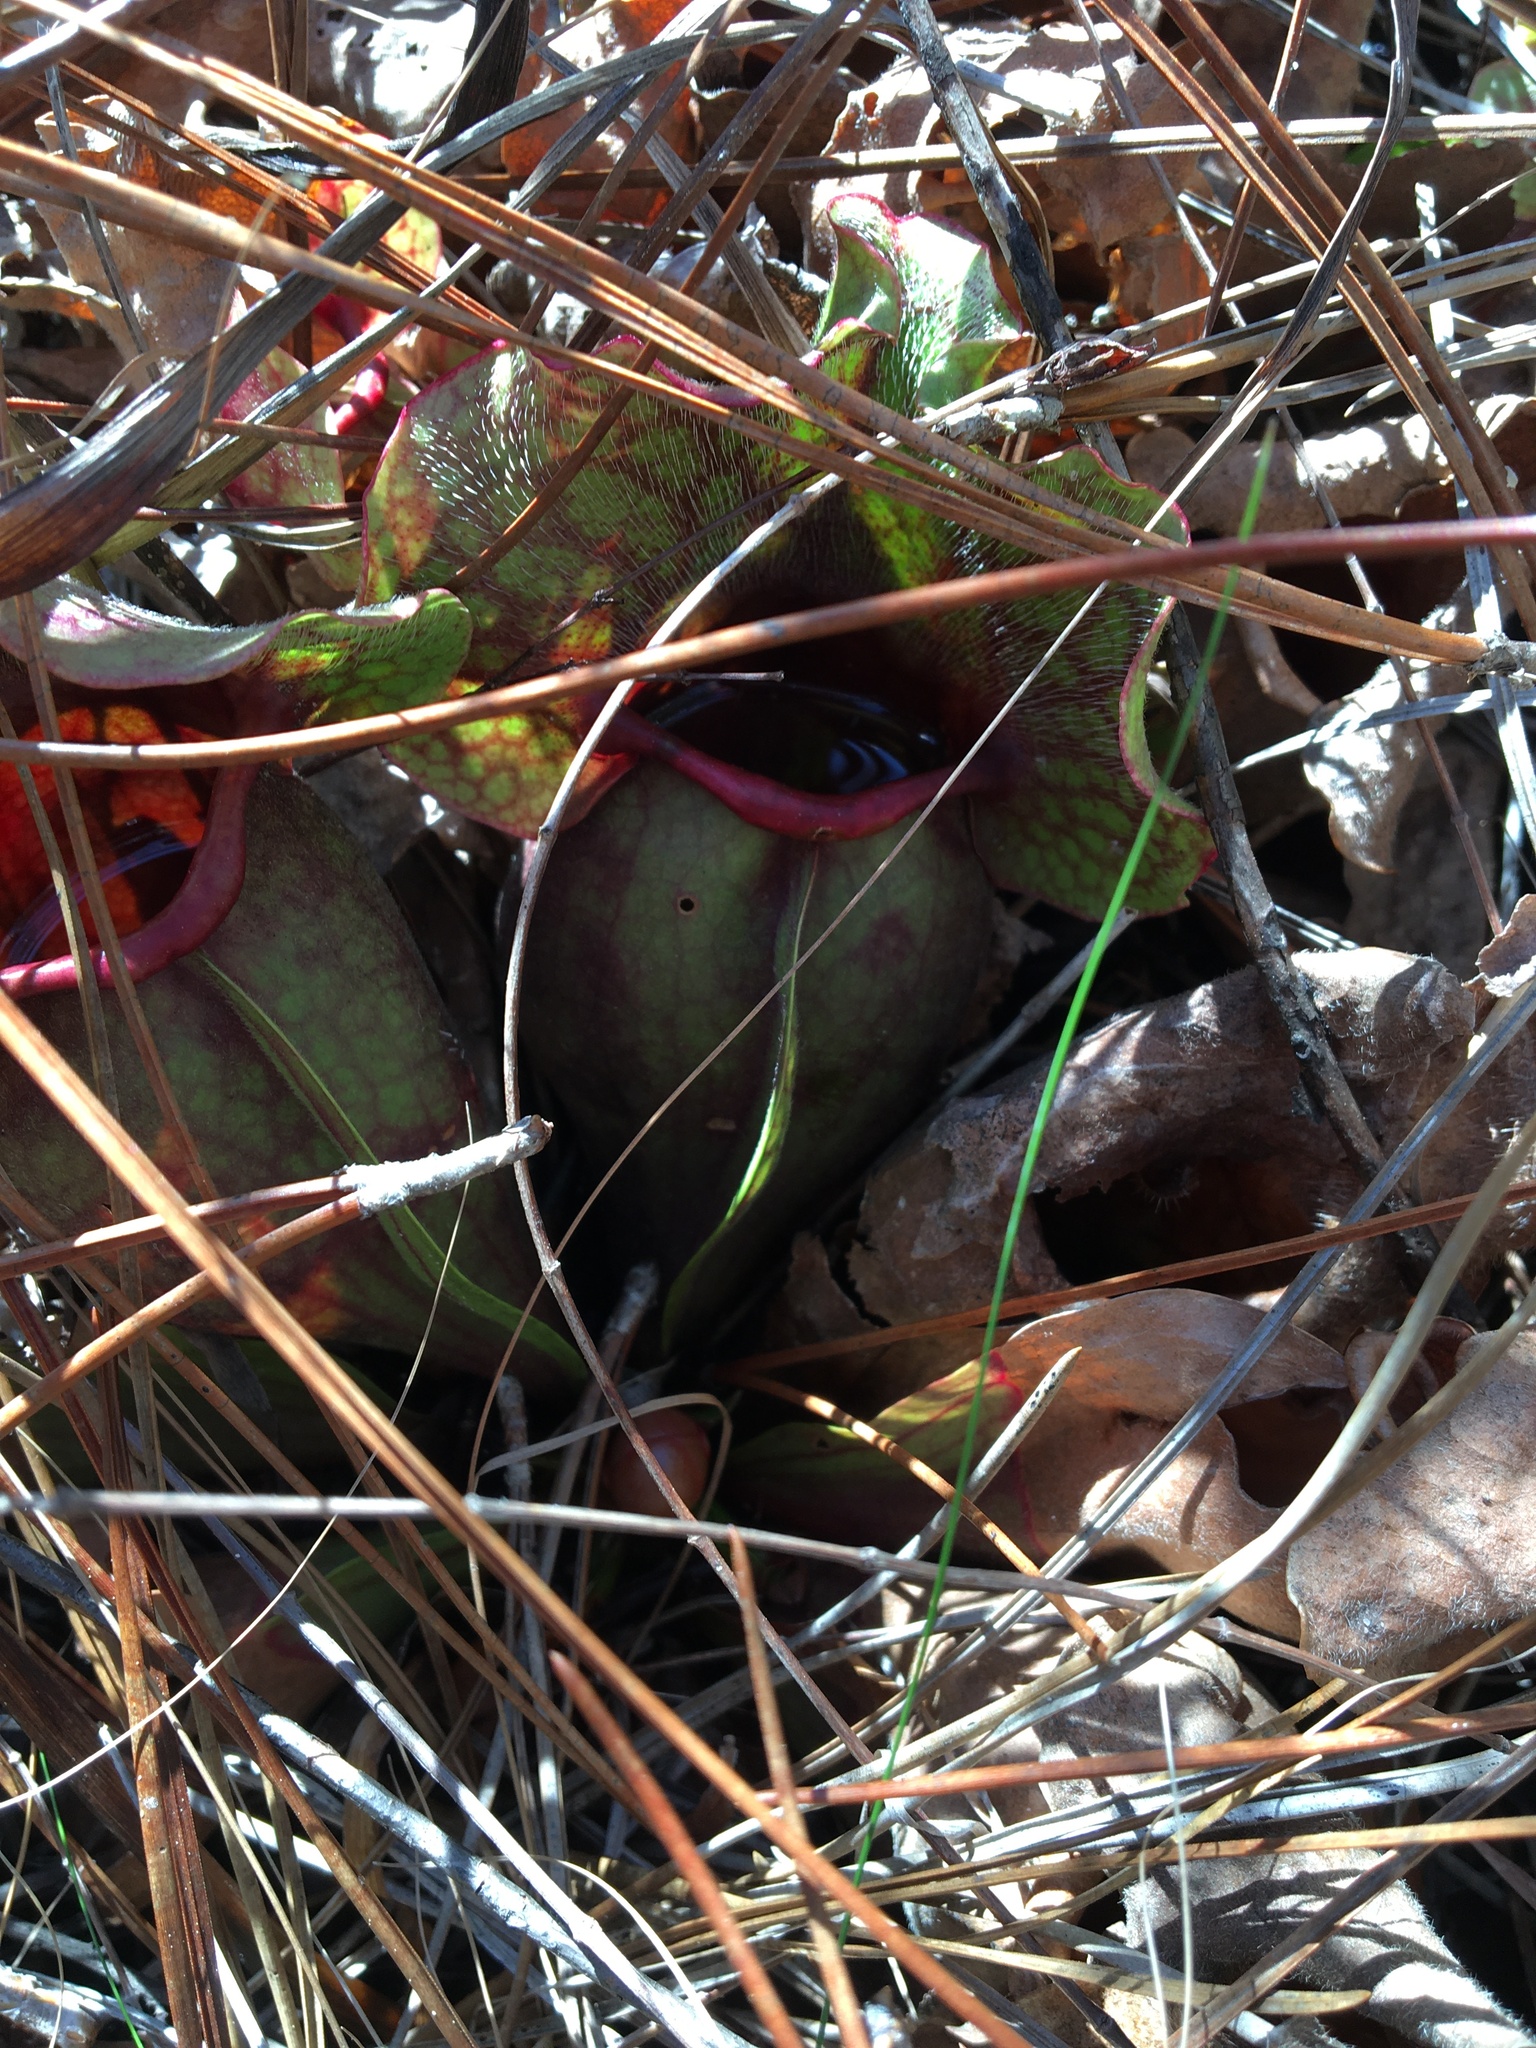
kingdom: Plantae
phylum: Tracheophyta
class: Magnoliopsida
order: Ericales
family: Sarraceniaceae
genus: Sarracenia
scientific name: Sarracenia rosea
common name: Pink pitcherplant
